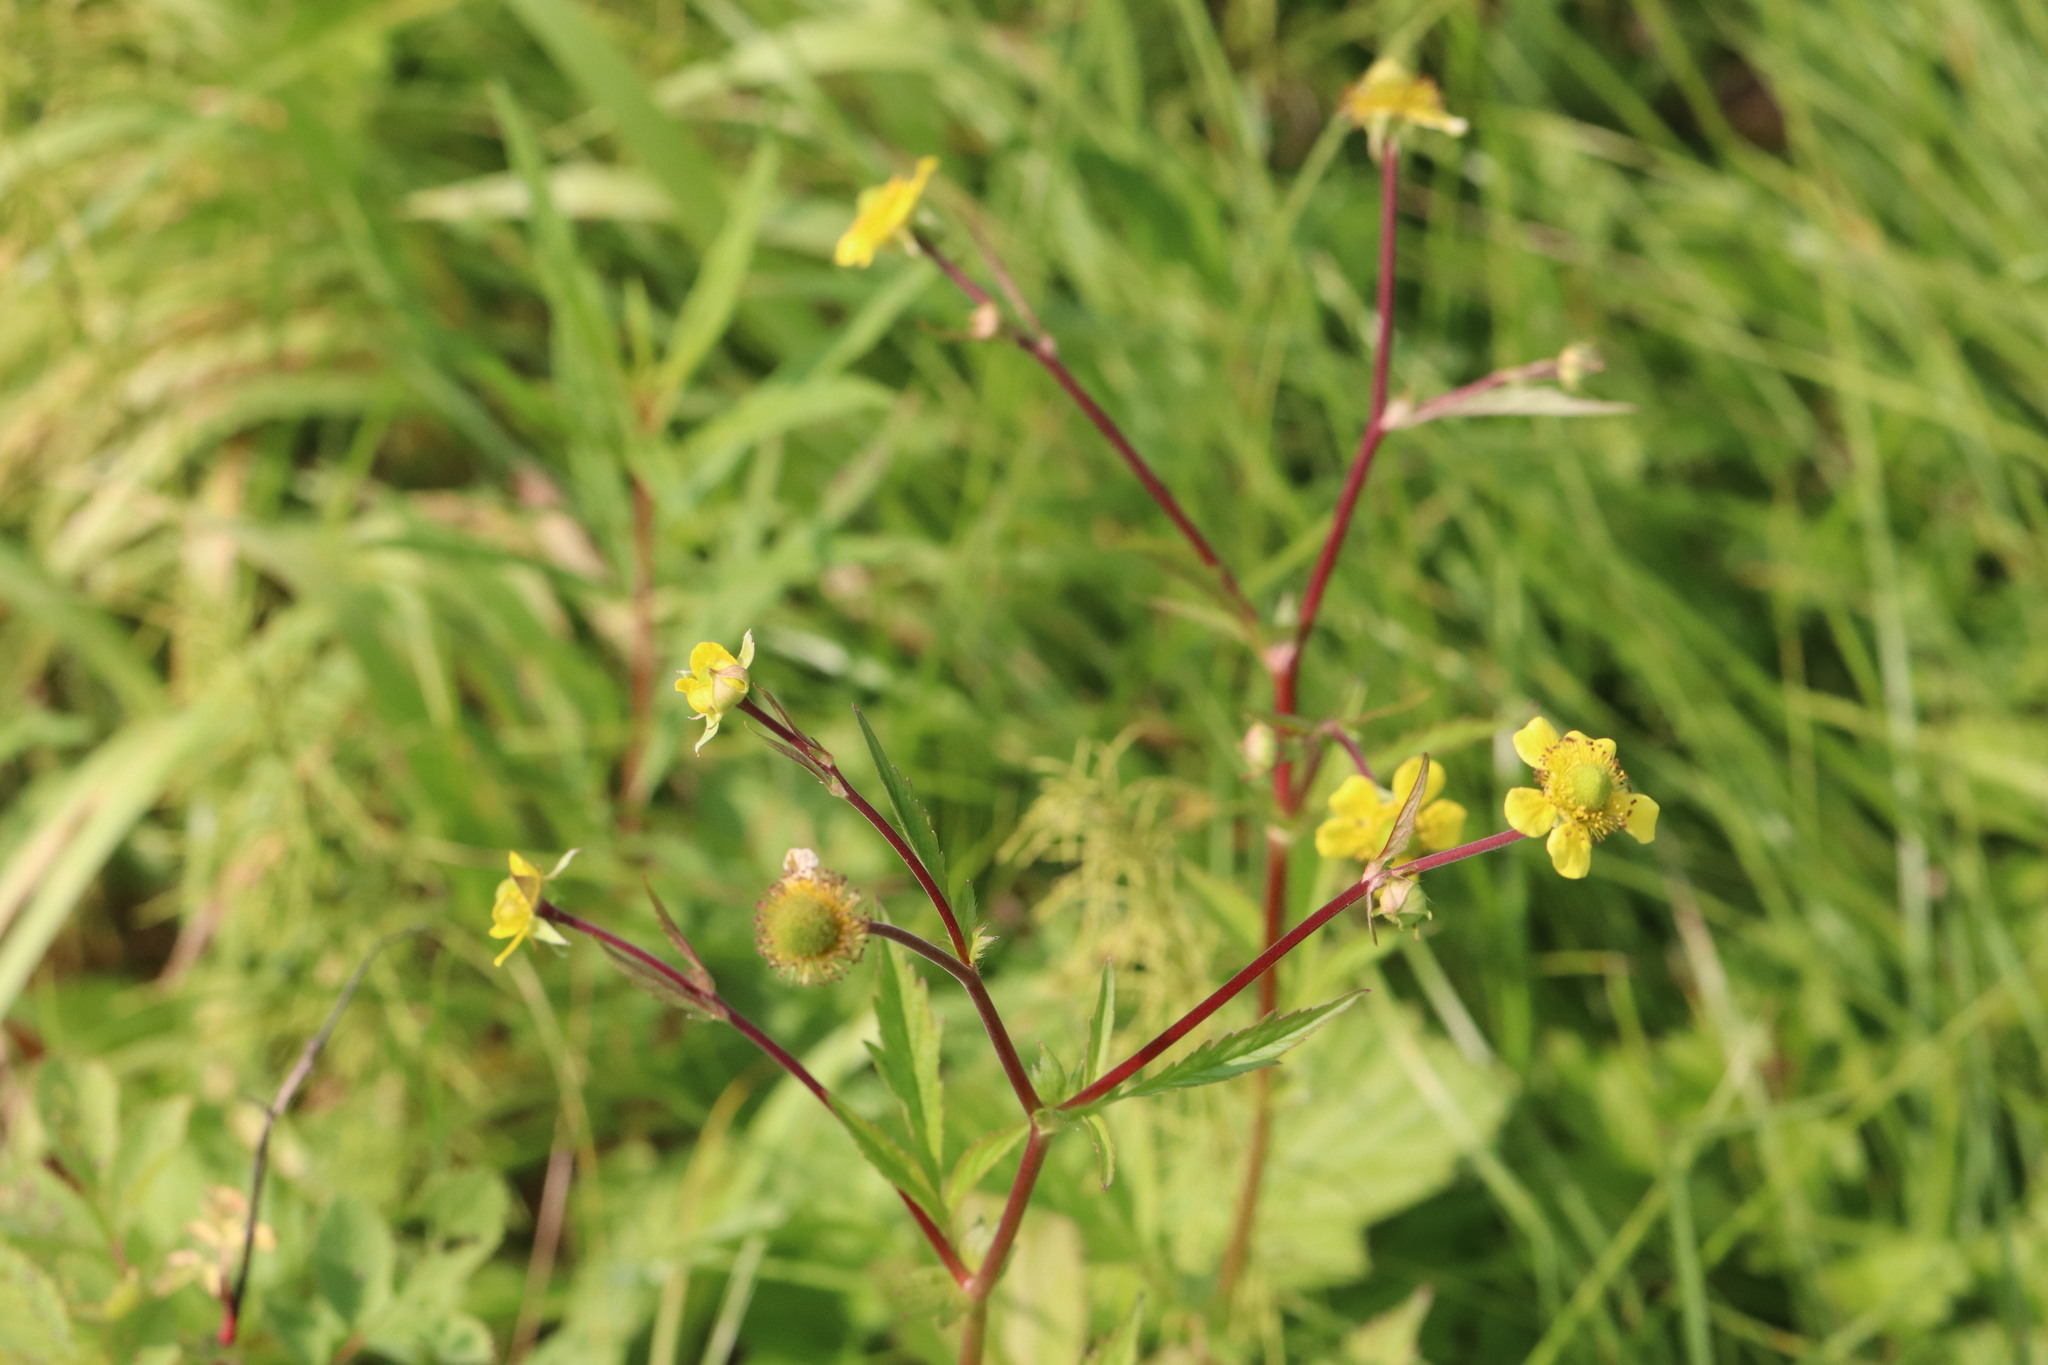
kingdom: Plantae
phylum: Tracheophyta
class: Magnoliopsida
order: Rosales
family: Rosaceae
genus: Geum
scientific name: Geum aleppicum
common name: Yellow avens
